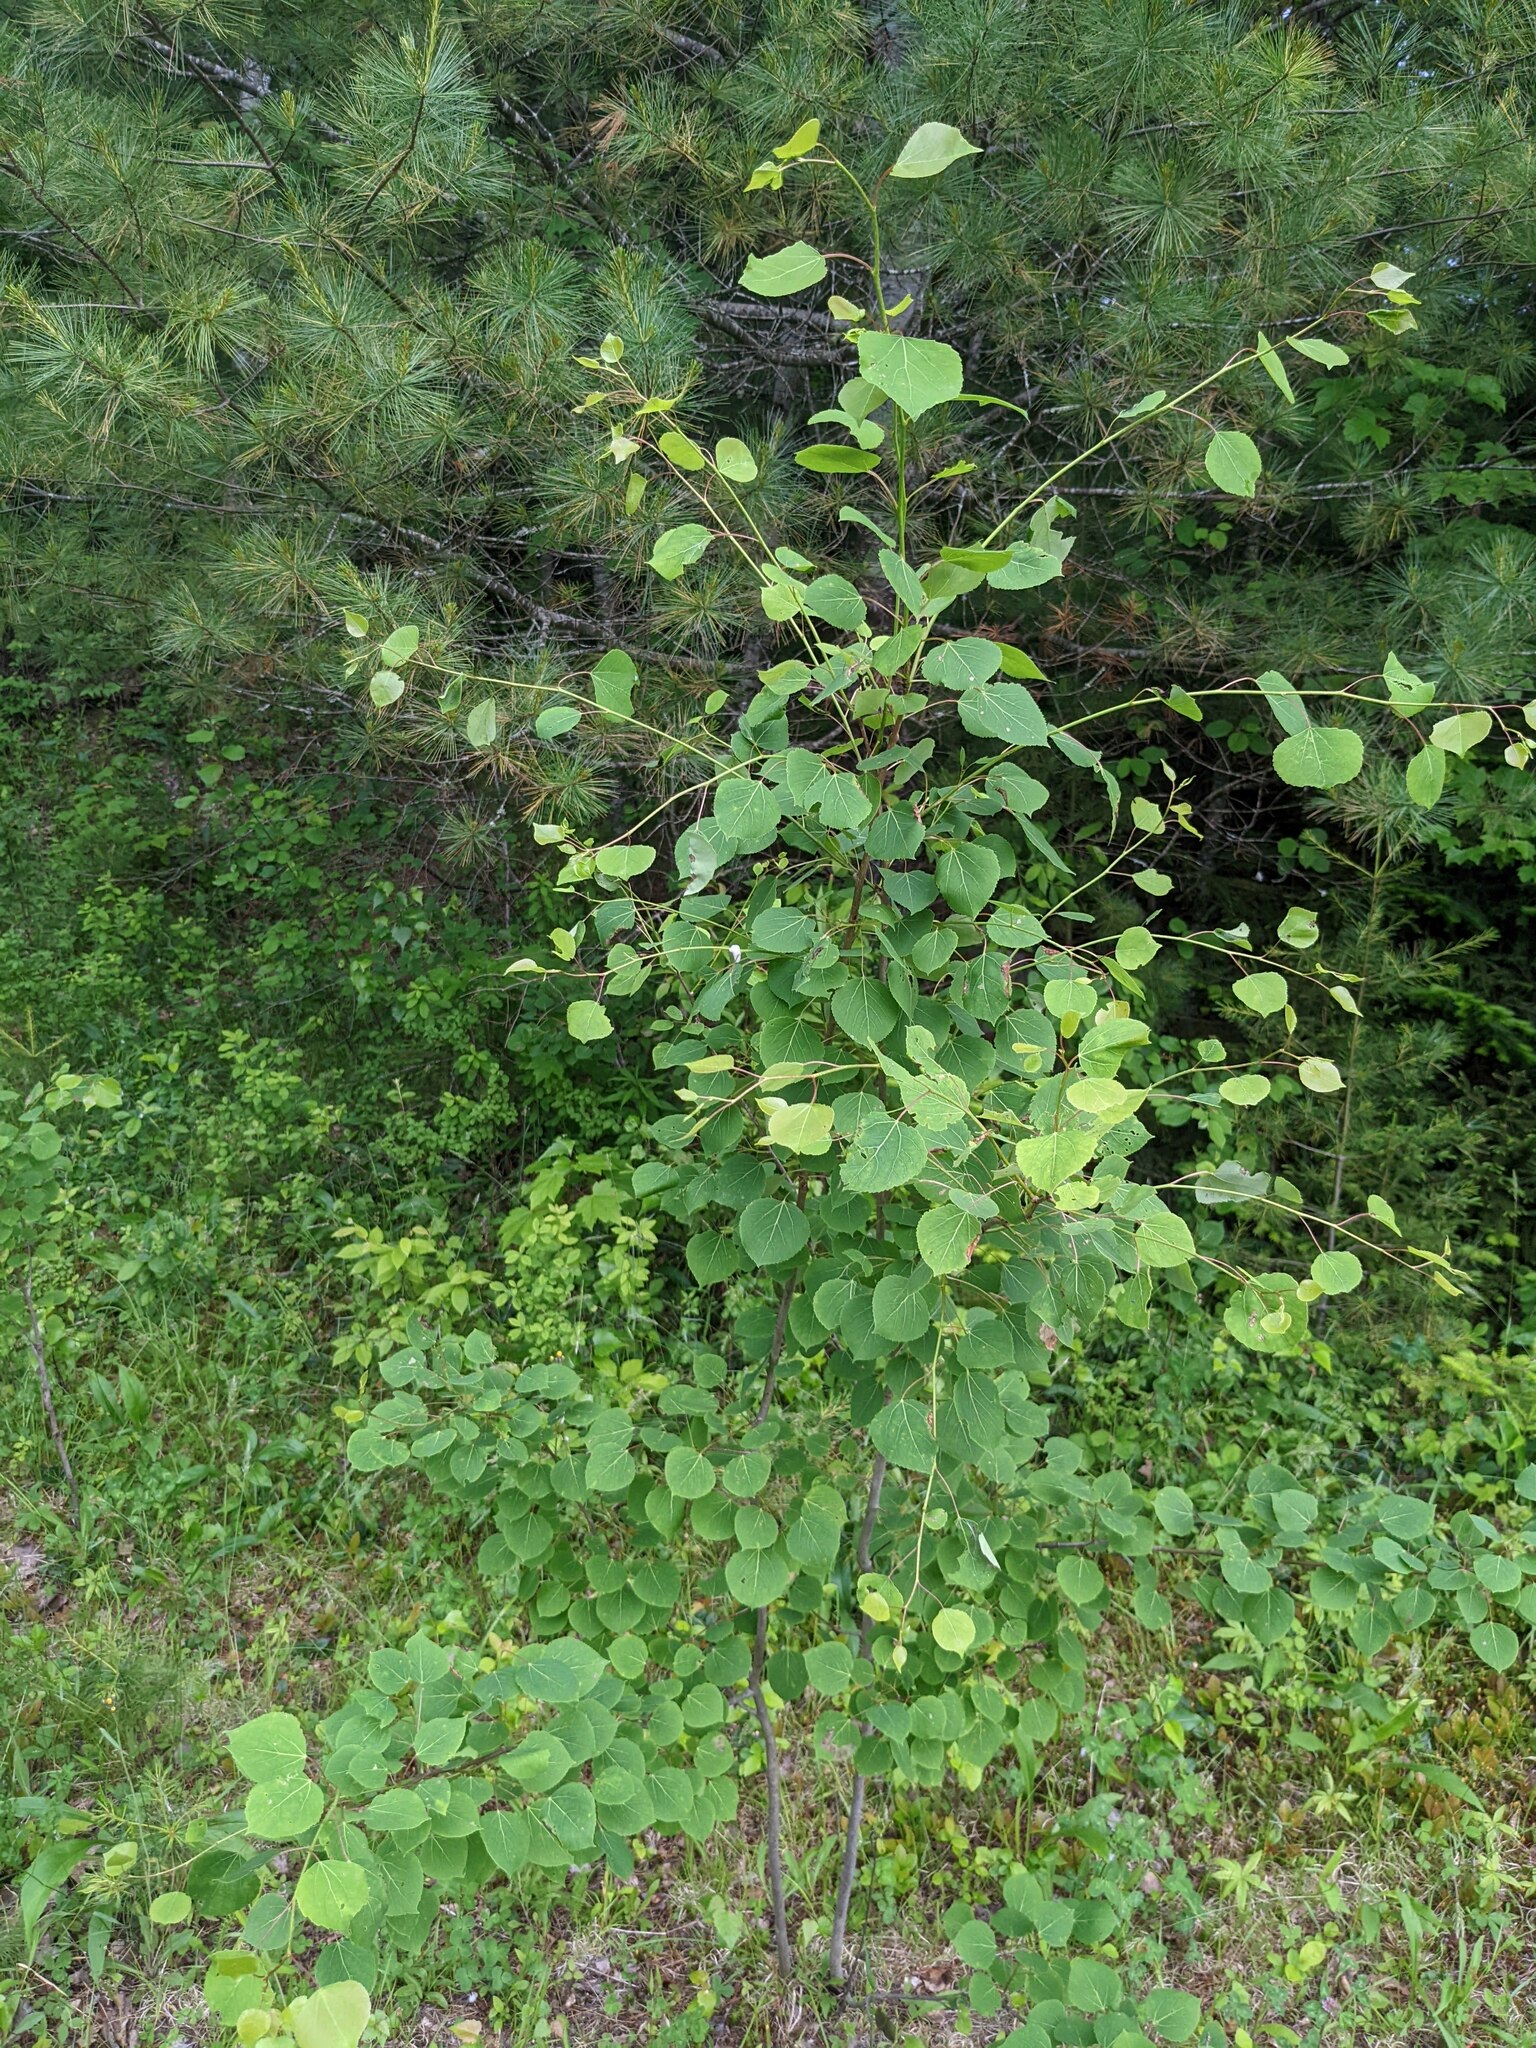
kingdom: Plantae
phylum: Tracheophyta
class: Magnoliopsida
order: Malpighiales
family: Salicaceae
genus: Populus
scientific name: Populus tremuloides
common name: Quaking aspen
